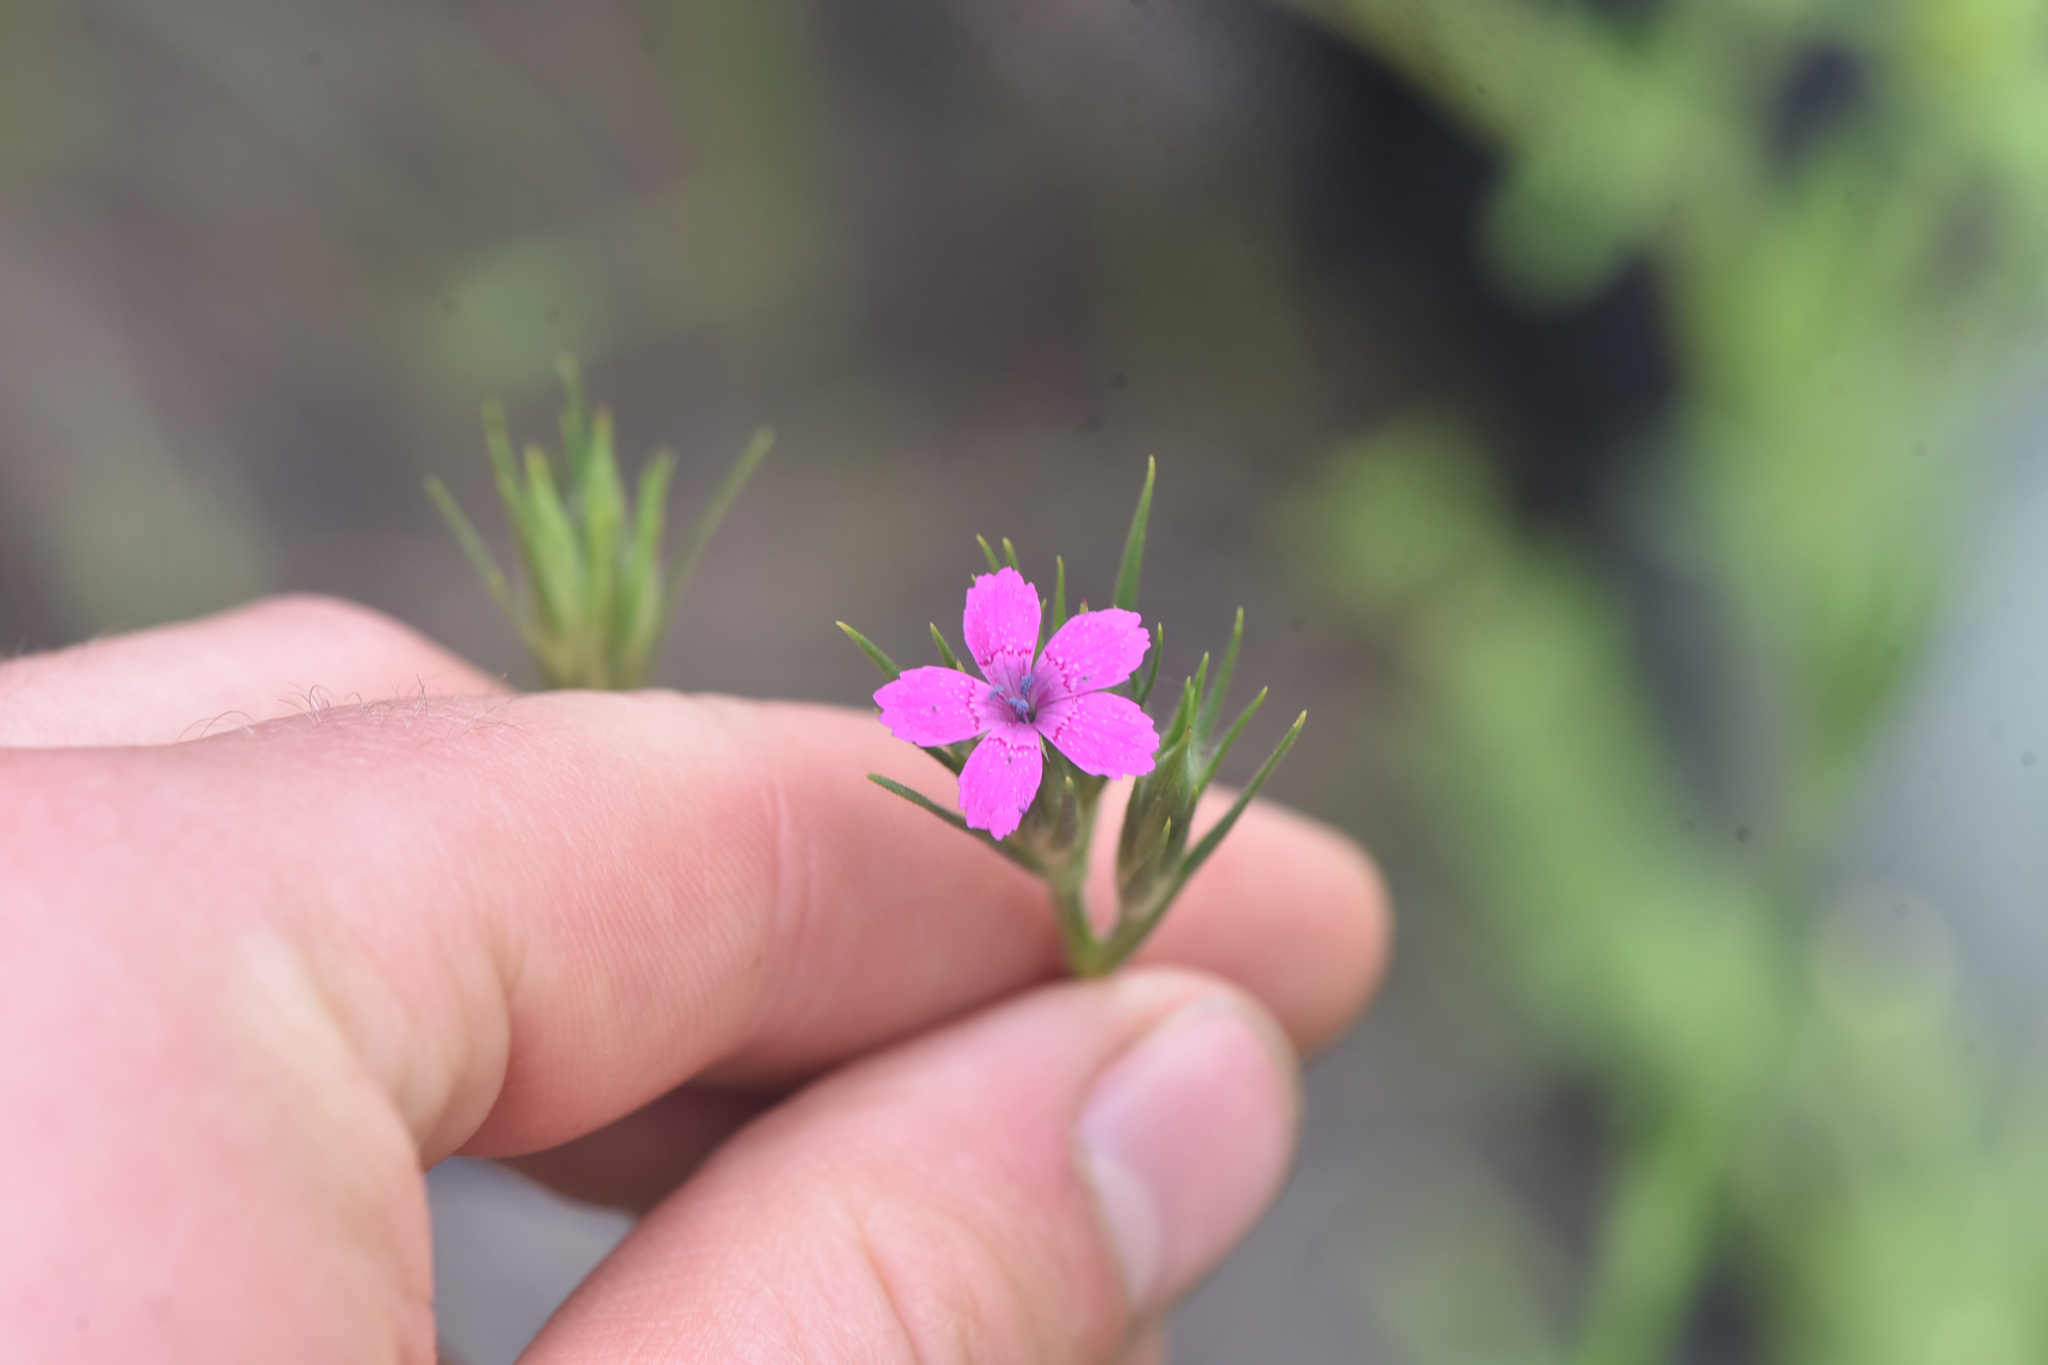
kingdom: Plantae
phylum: Tracheophyta
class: Magnoliopsida
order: Caryophyllales
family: Caryophyllaceae
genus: Dianthus
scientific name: Dianthus armeria
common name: Deptford pink
